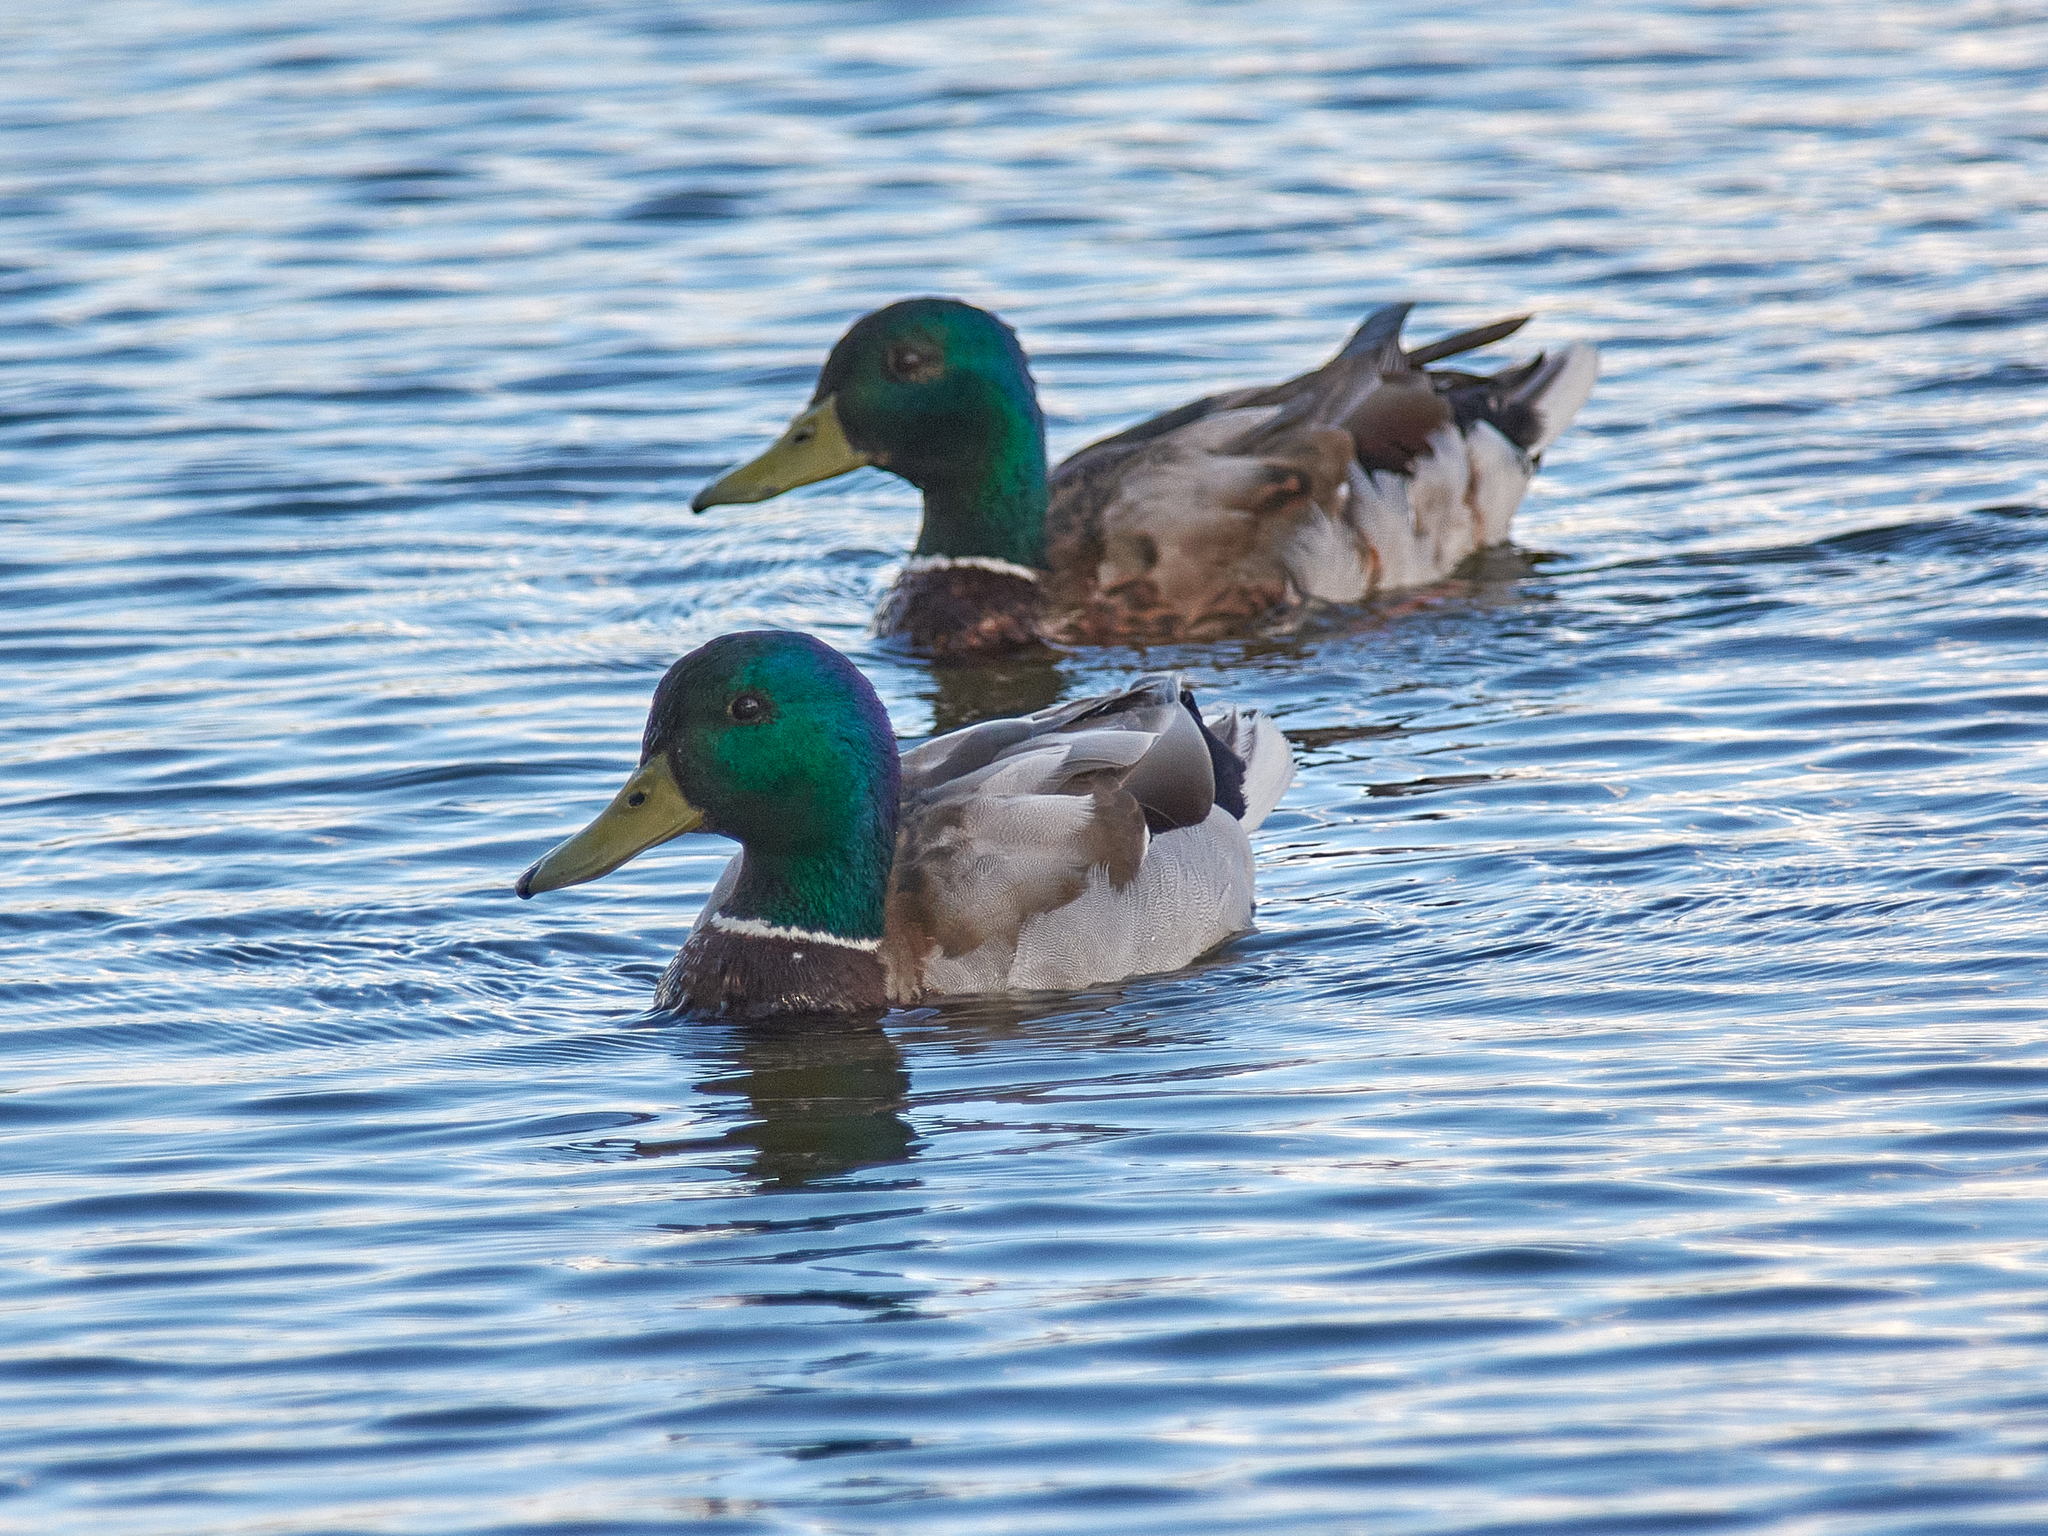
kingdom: Animalia
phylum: Chordata
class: Aves
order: Anseriformes
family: Anatidae
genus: Anas
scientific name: Anas platyrhynchos
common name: Mallard
